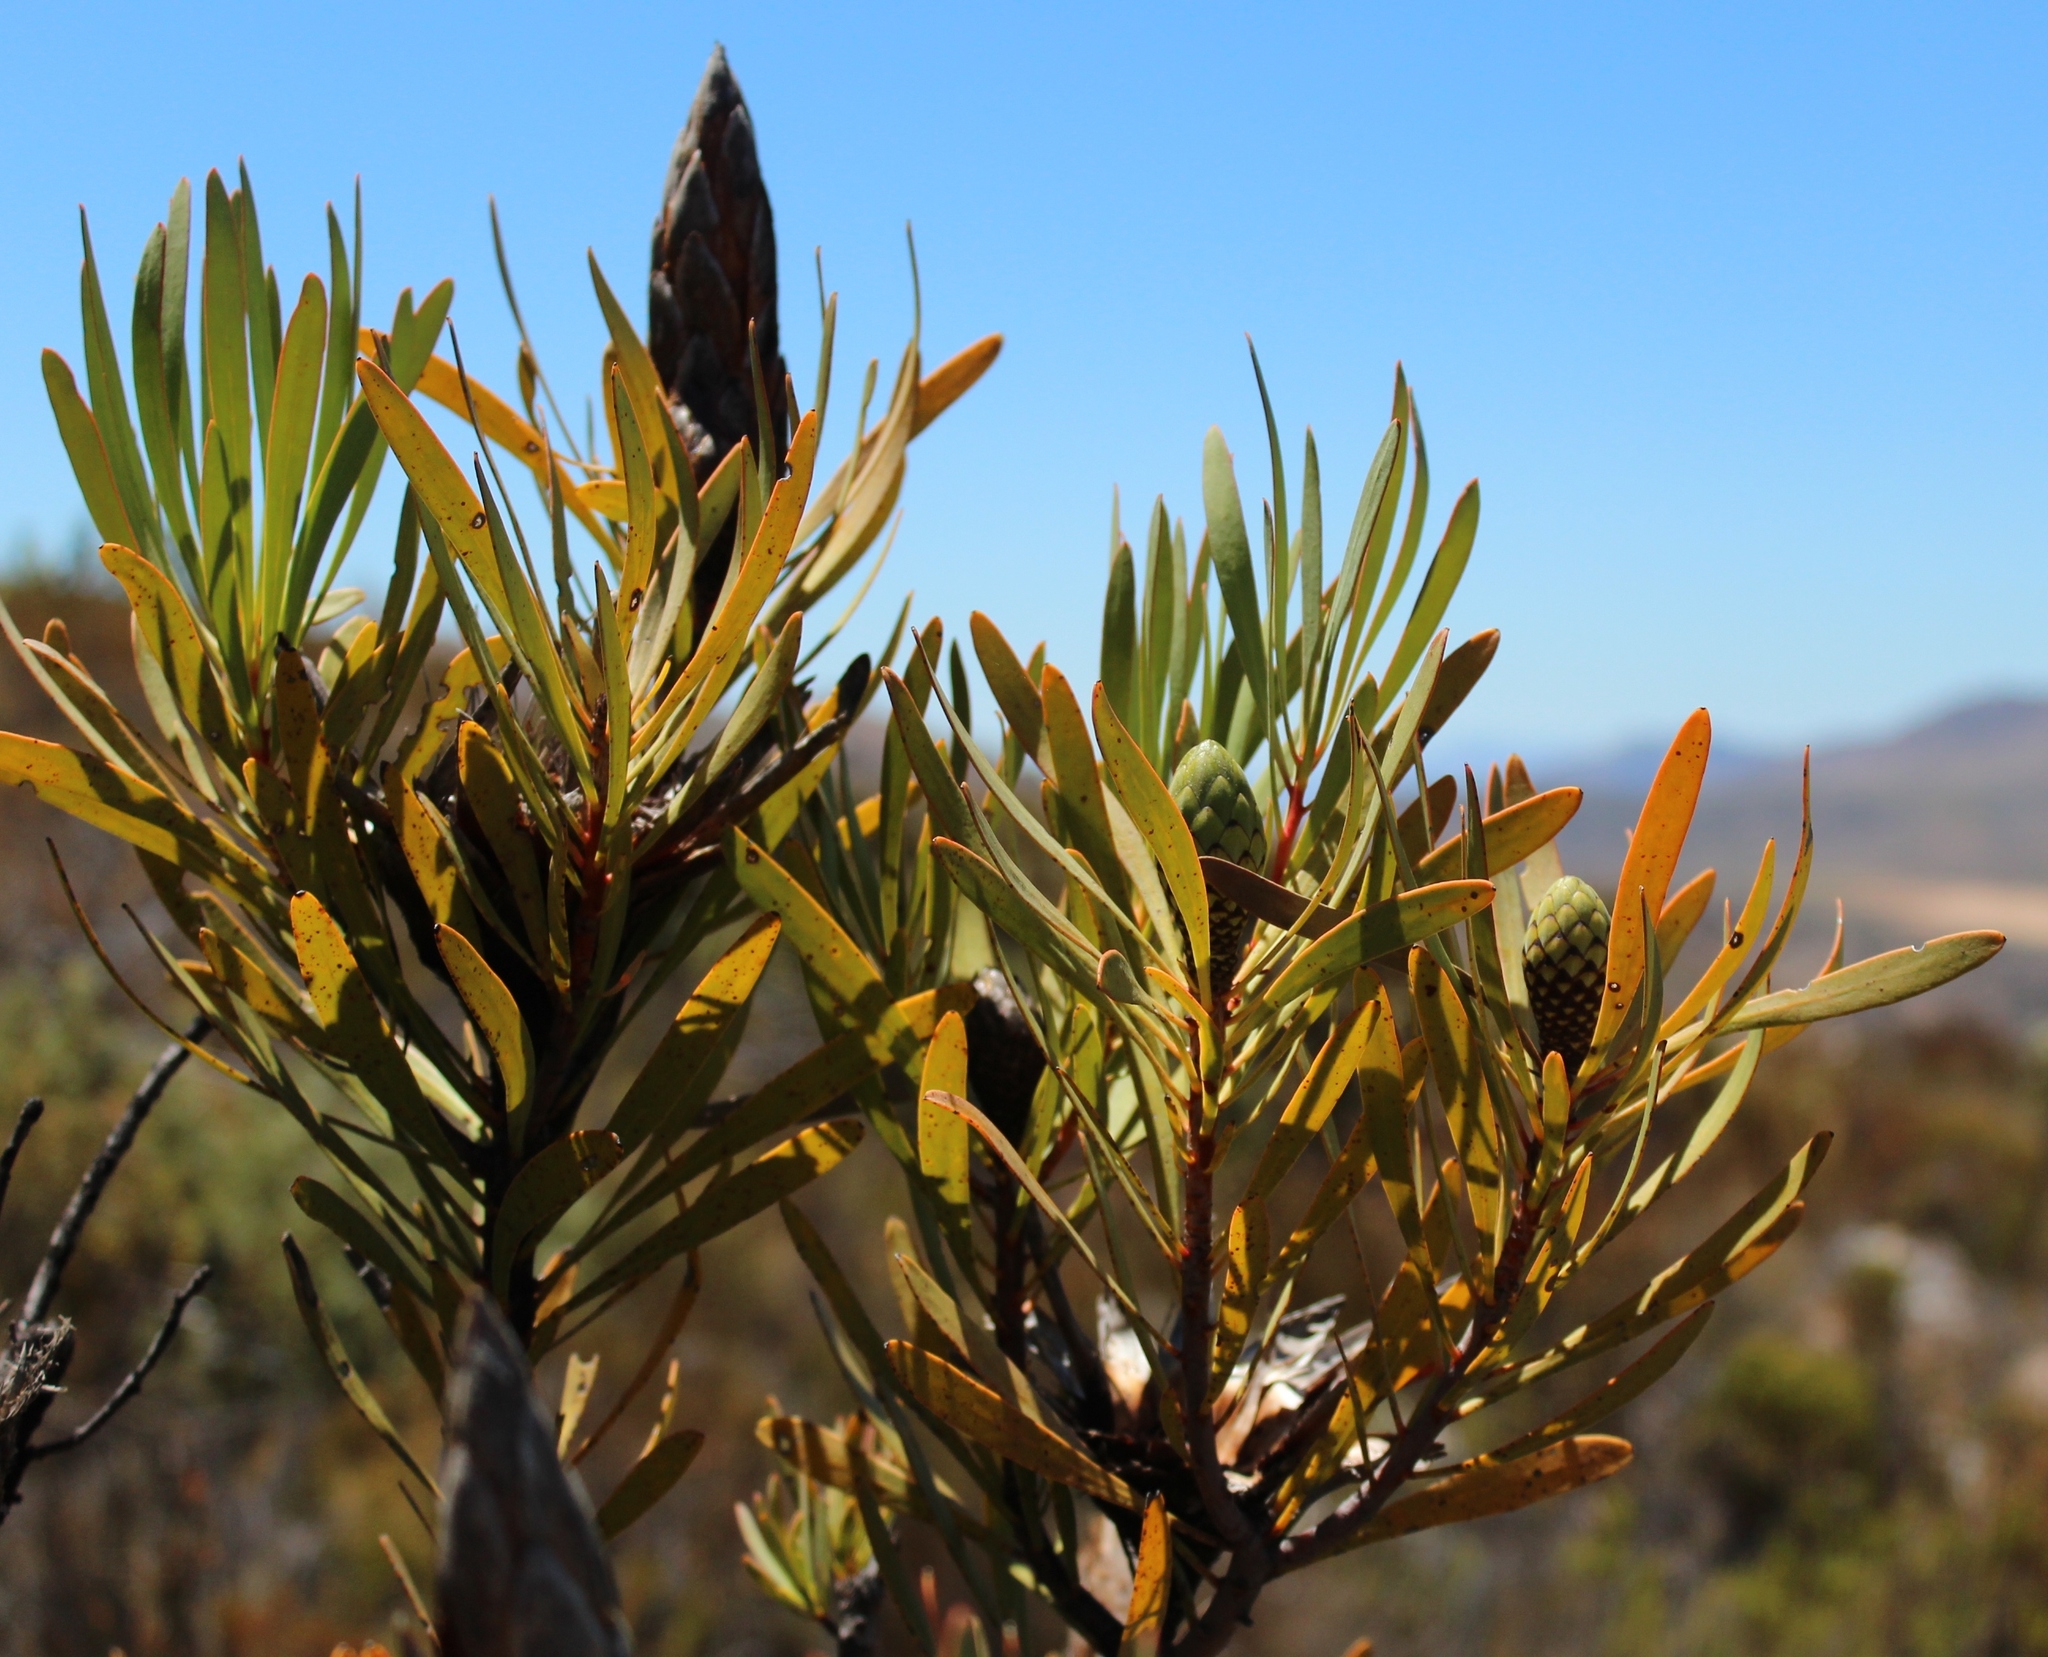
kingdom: Plantae
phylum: Tracheophyta
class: Magnoliopsida
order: Proteales
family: Proteaceae
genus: Protea
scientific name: Protea repens
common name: Sugarbush
